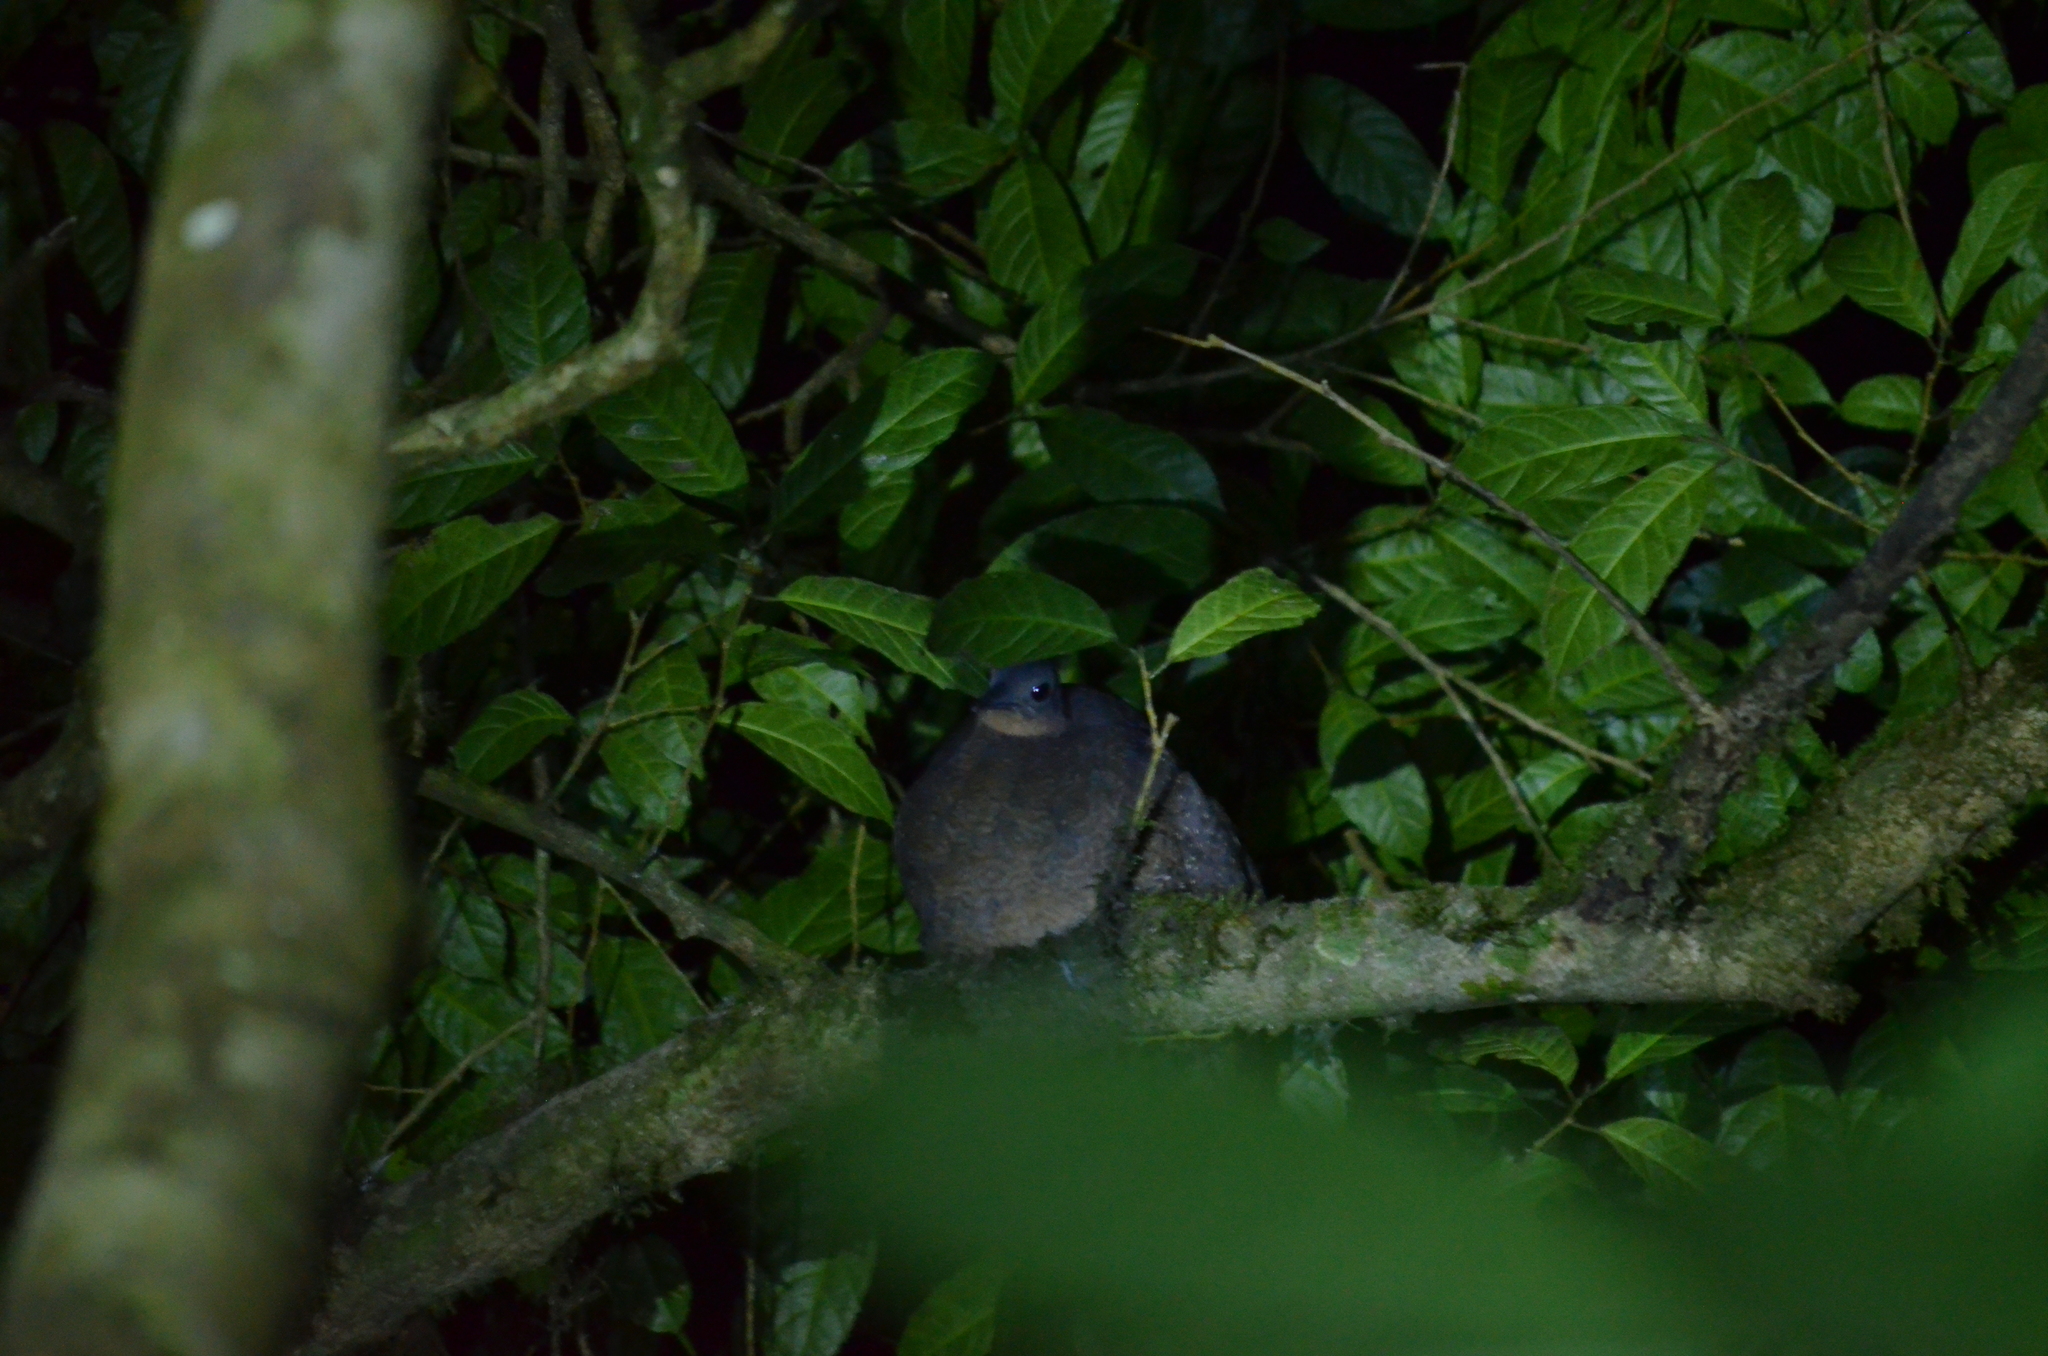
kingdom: Animalia
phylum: Chordata
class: Aves
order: Tinamiformes
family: Tinamidae
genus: Nothocercus
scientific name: Nothocercus bonapartei
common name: Highland tinamou
